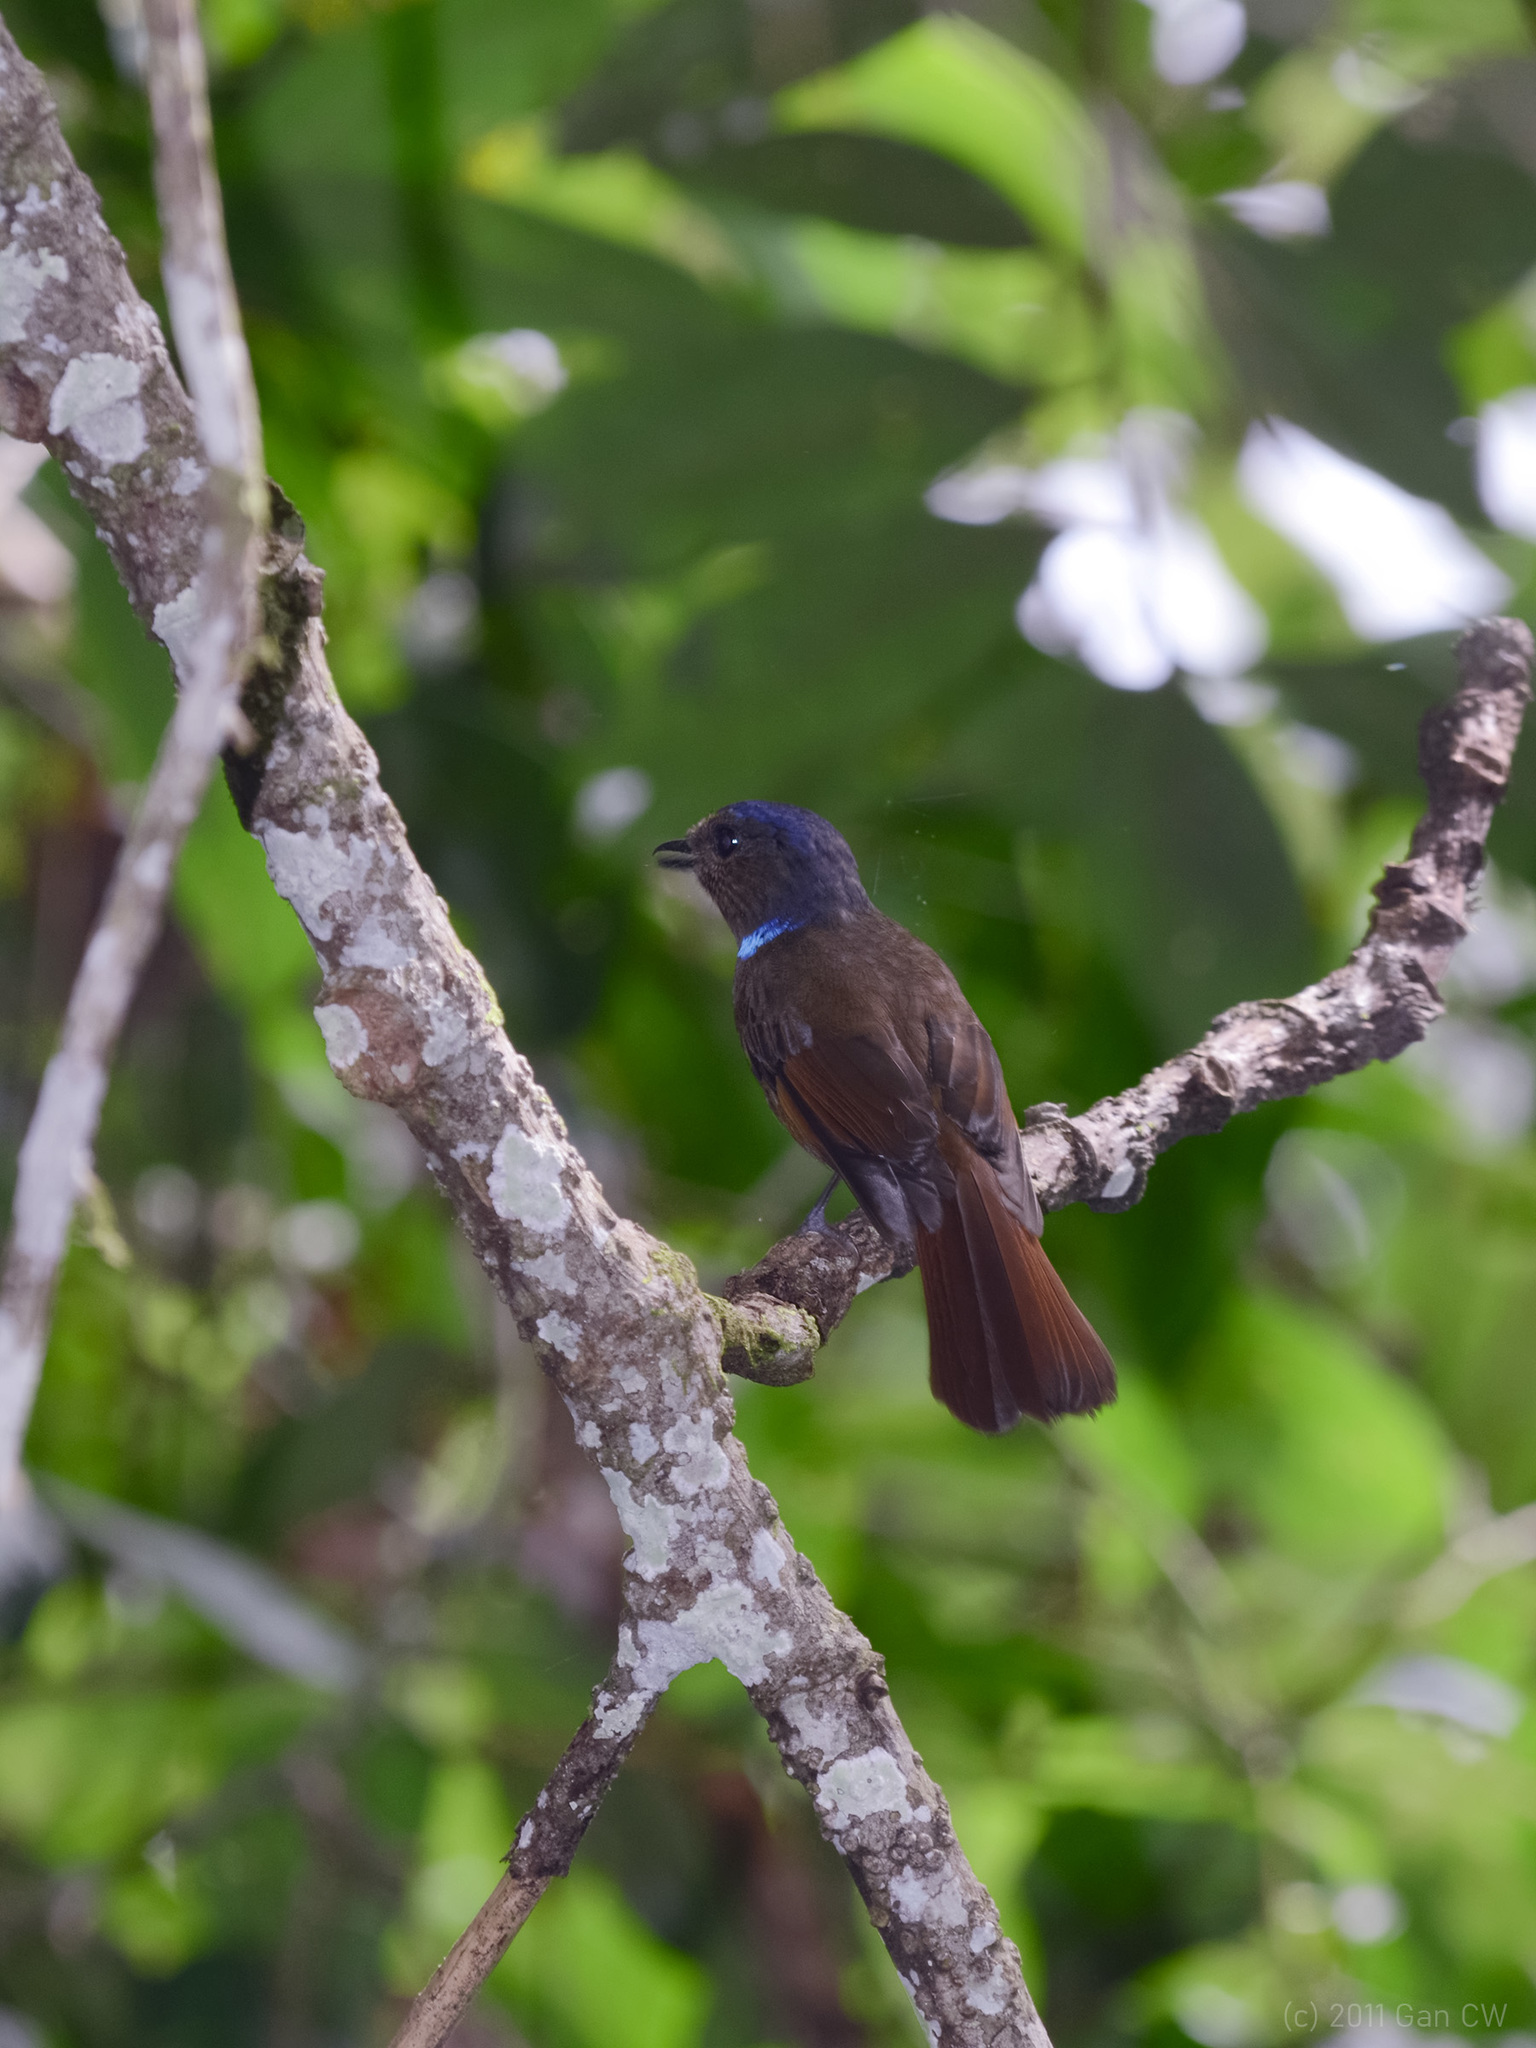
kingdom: Animalia
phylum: Chordata
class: Aves
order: Passeriformes
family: Muscicapidae
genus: Niltava
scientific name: Niltava grandis
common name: Large niltava
